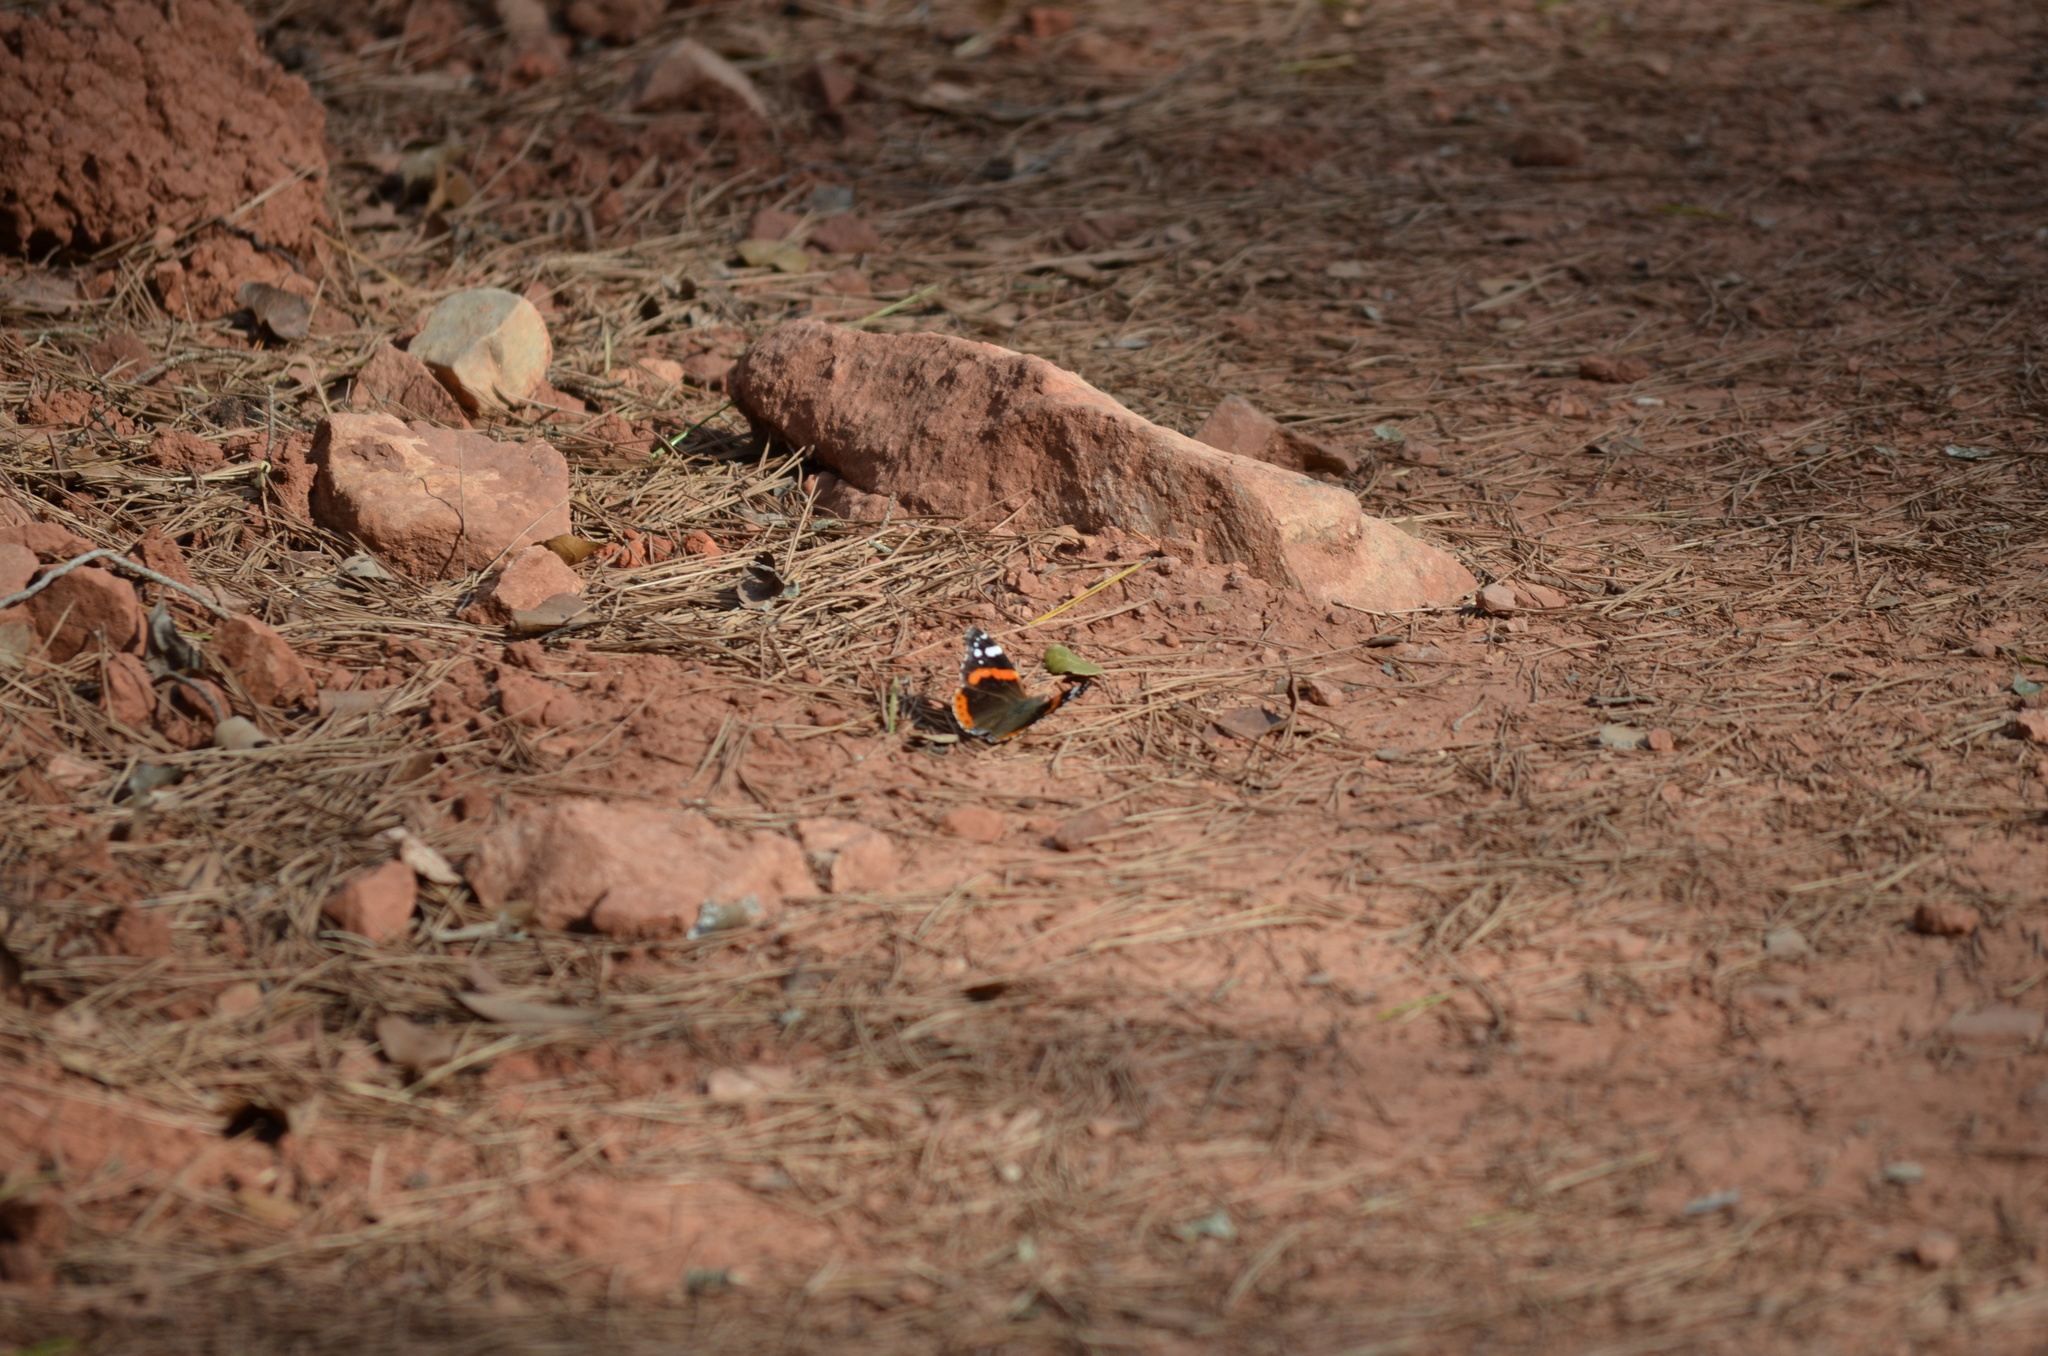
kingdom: Animalia
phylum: Arthropoda
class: Insecta
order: Lepidoptera
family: Nymphalidae
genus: Vanessa
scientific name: Vanessa atalanta
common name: Red admiral
